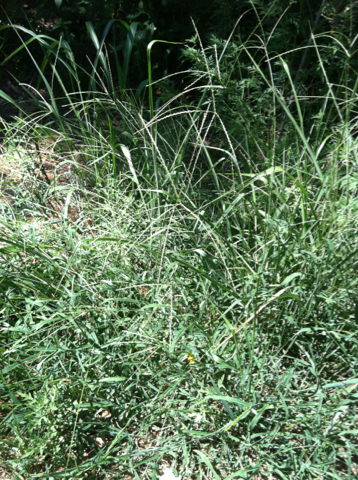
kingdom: Plantae
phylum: Tracheophyta
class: Liliopsida
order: Poales
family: Poaceae
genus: Digitaria
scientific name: Digitaria ciliaris
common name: Tropical finger-grass
